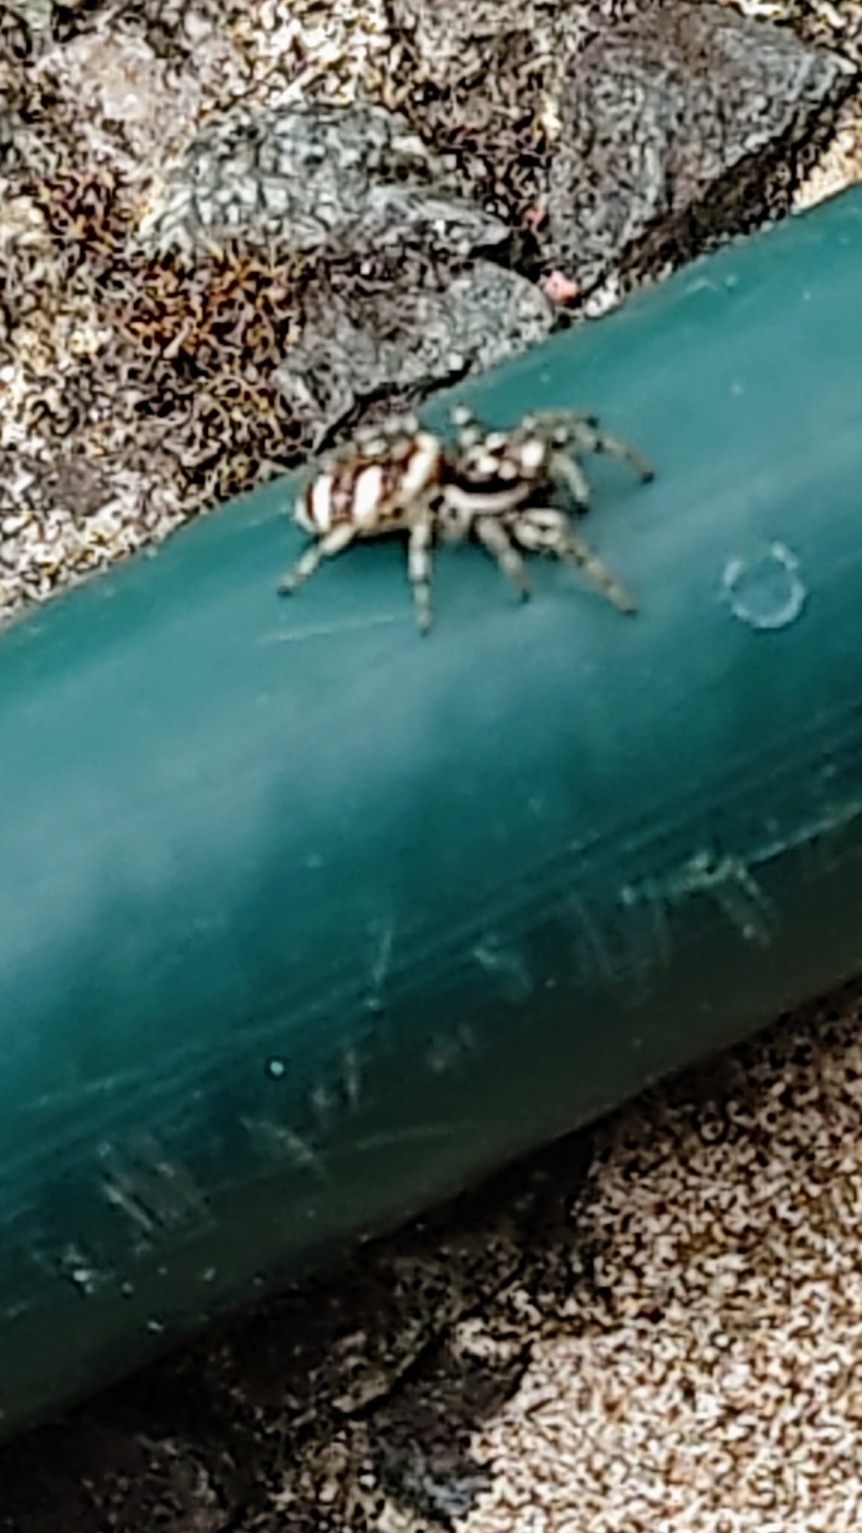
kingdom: Animalia
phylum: Arthropoda
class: Arachnida
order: Araneae
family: Salticidae
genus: Salticus
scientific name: Salticus scenicus
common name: Zebra jumper
